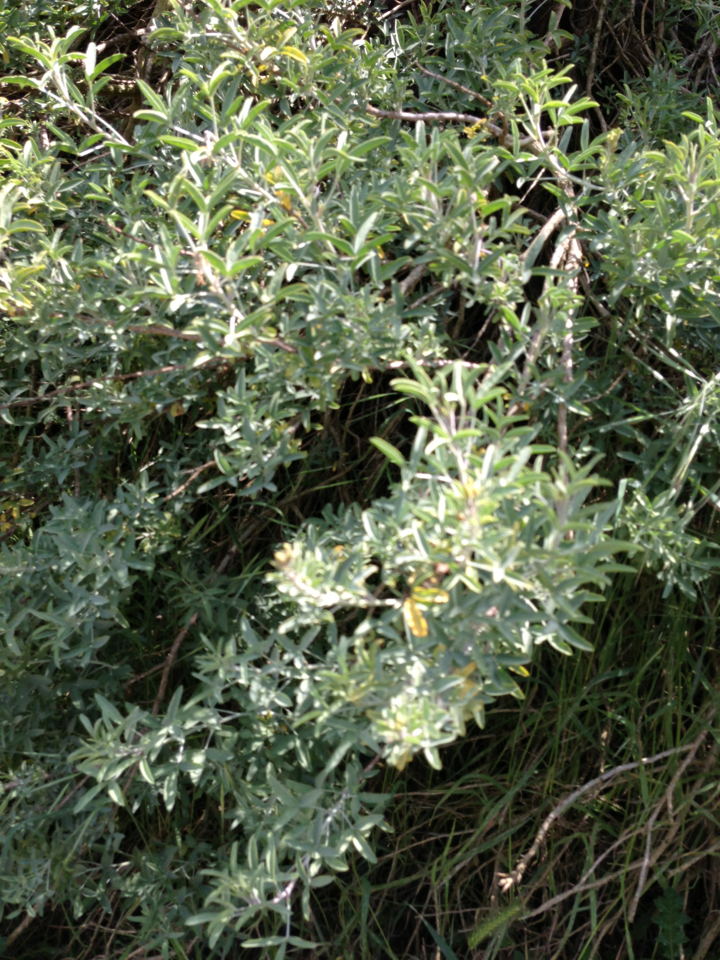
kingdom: Plantae
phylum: Tracheophyta
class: Magnoliopsida
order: Brassicales
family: Cleomaceae
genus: Cleomella
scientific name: Cleomella arborea
